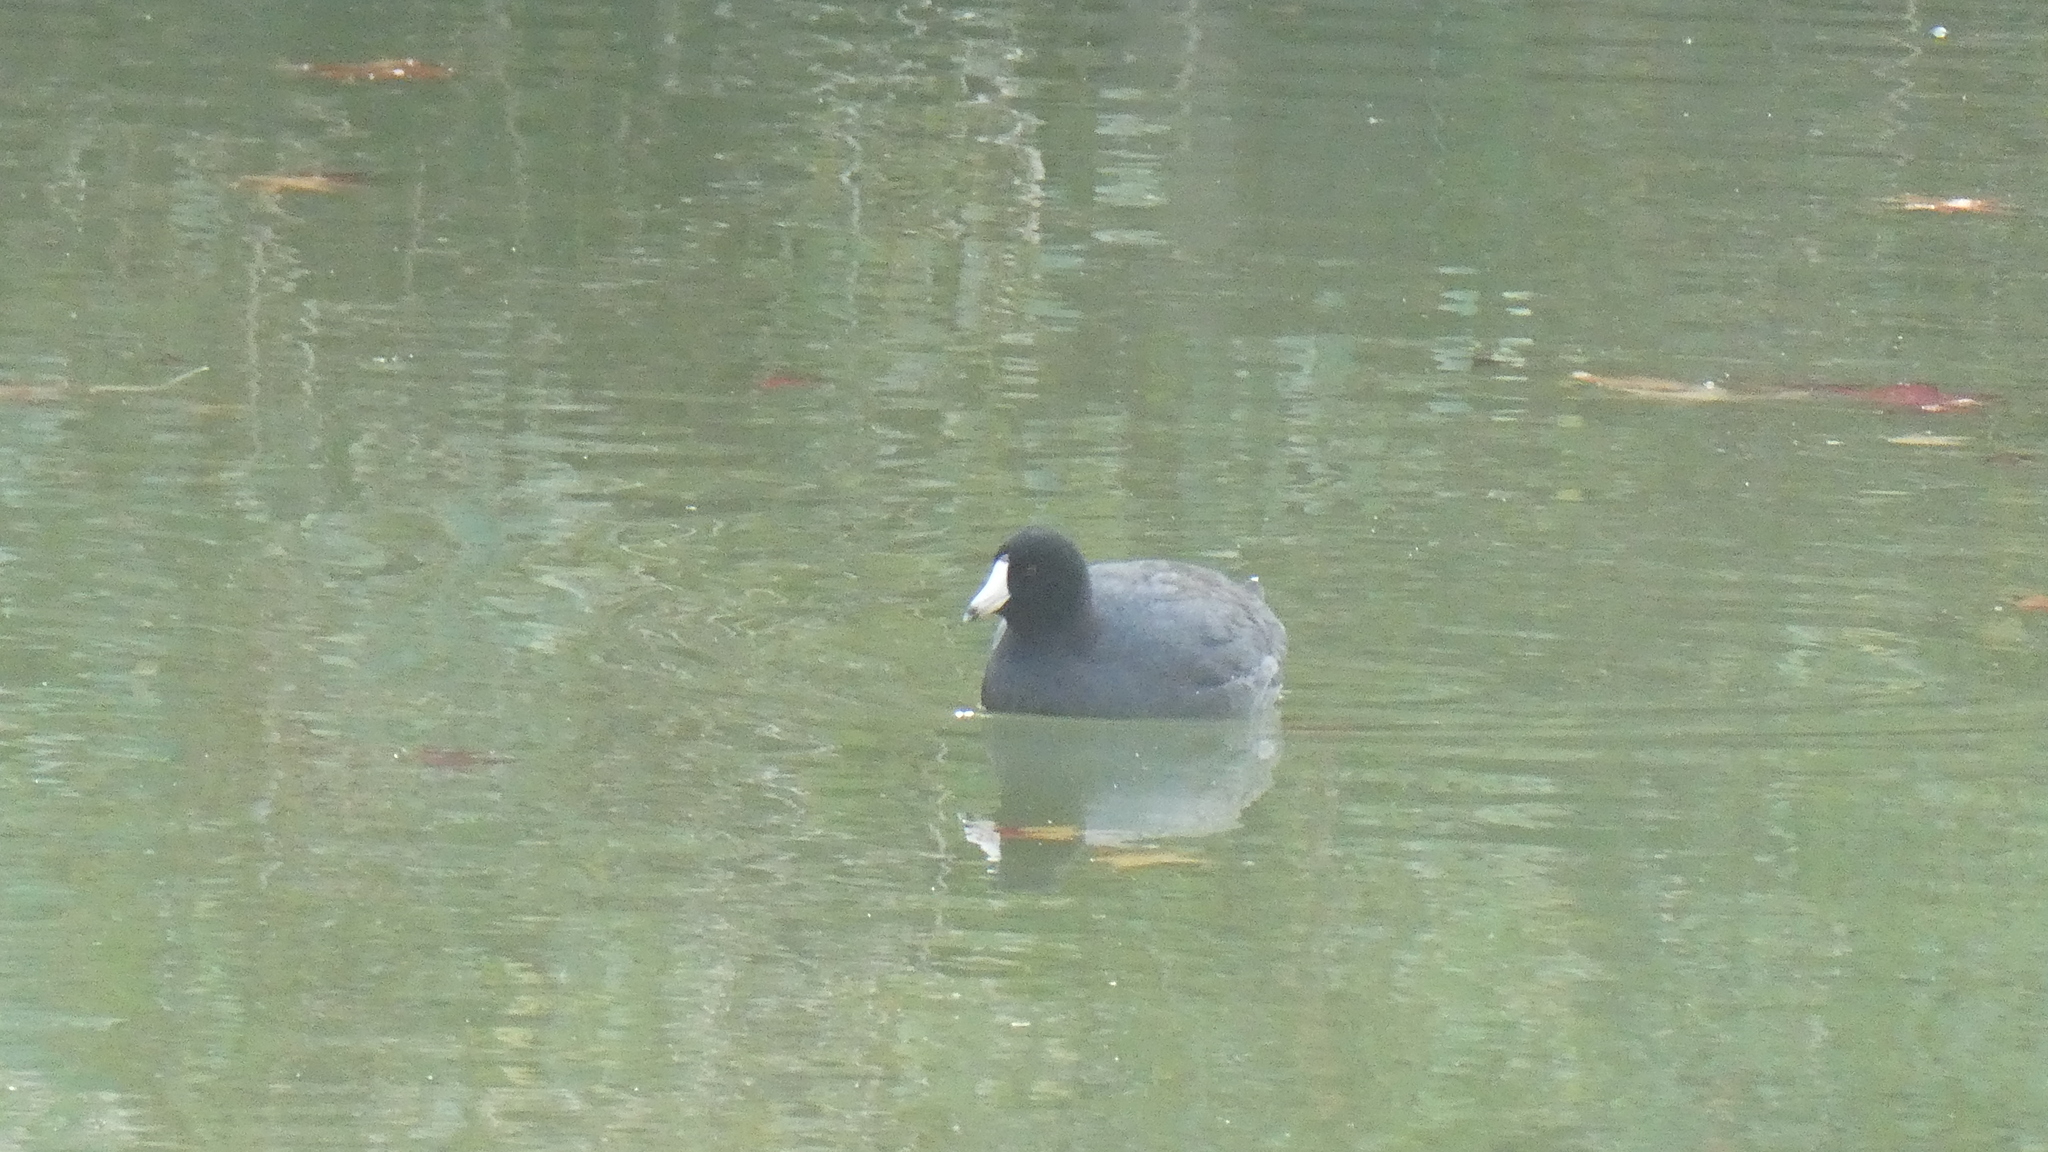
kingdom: Animalia
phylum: Chordata
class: Aves
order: Gruiformes
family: Rallidae
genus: Fulica
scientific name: Fulica americana
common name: American coot
